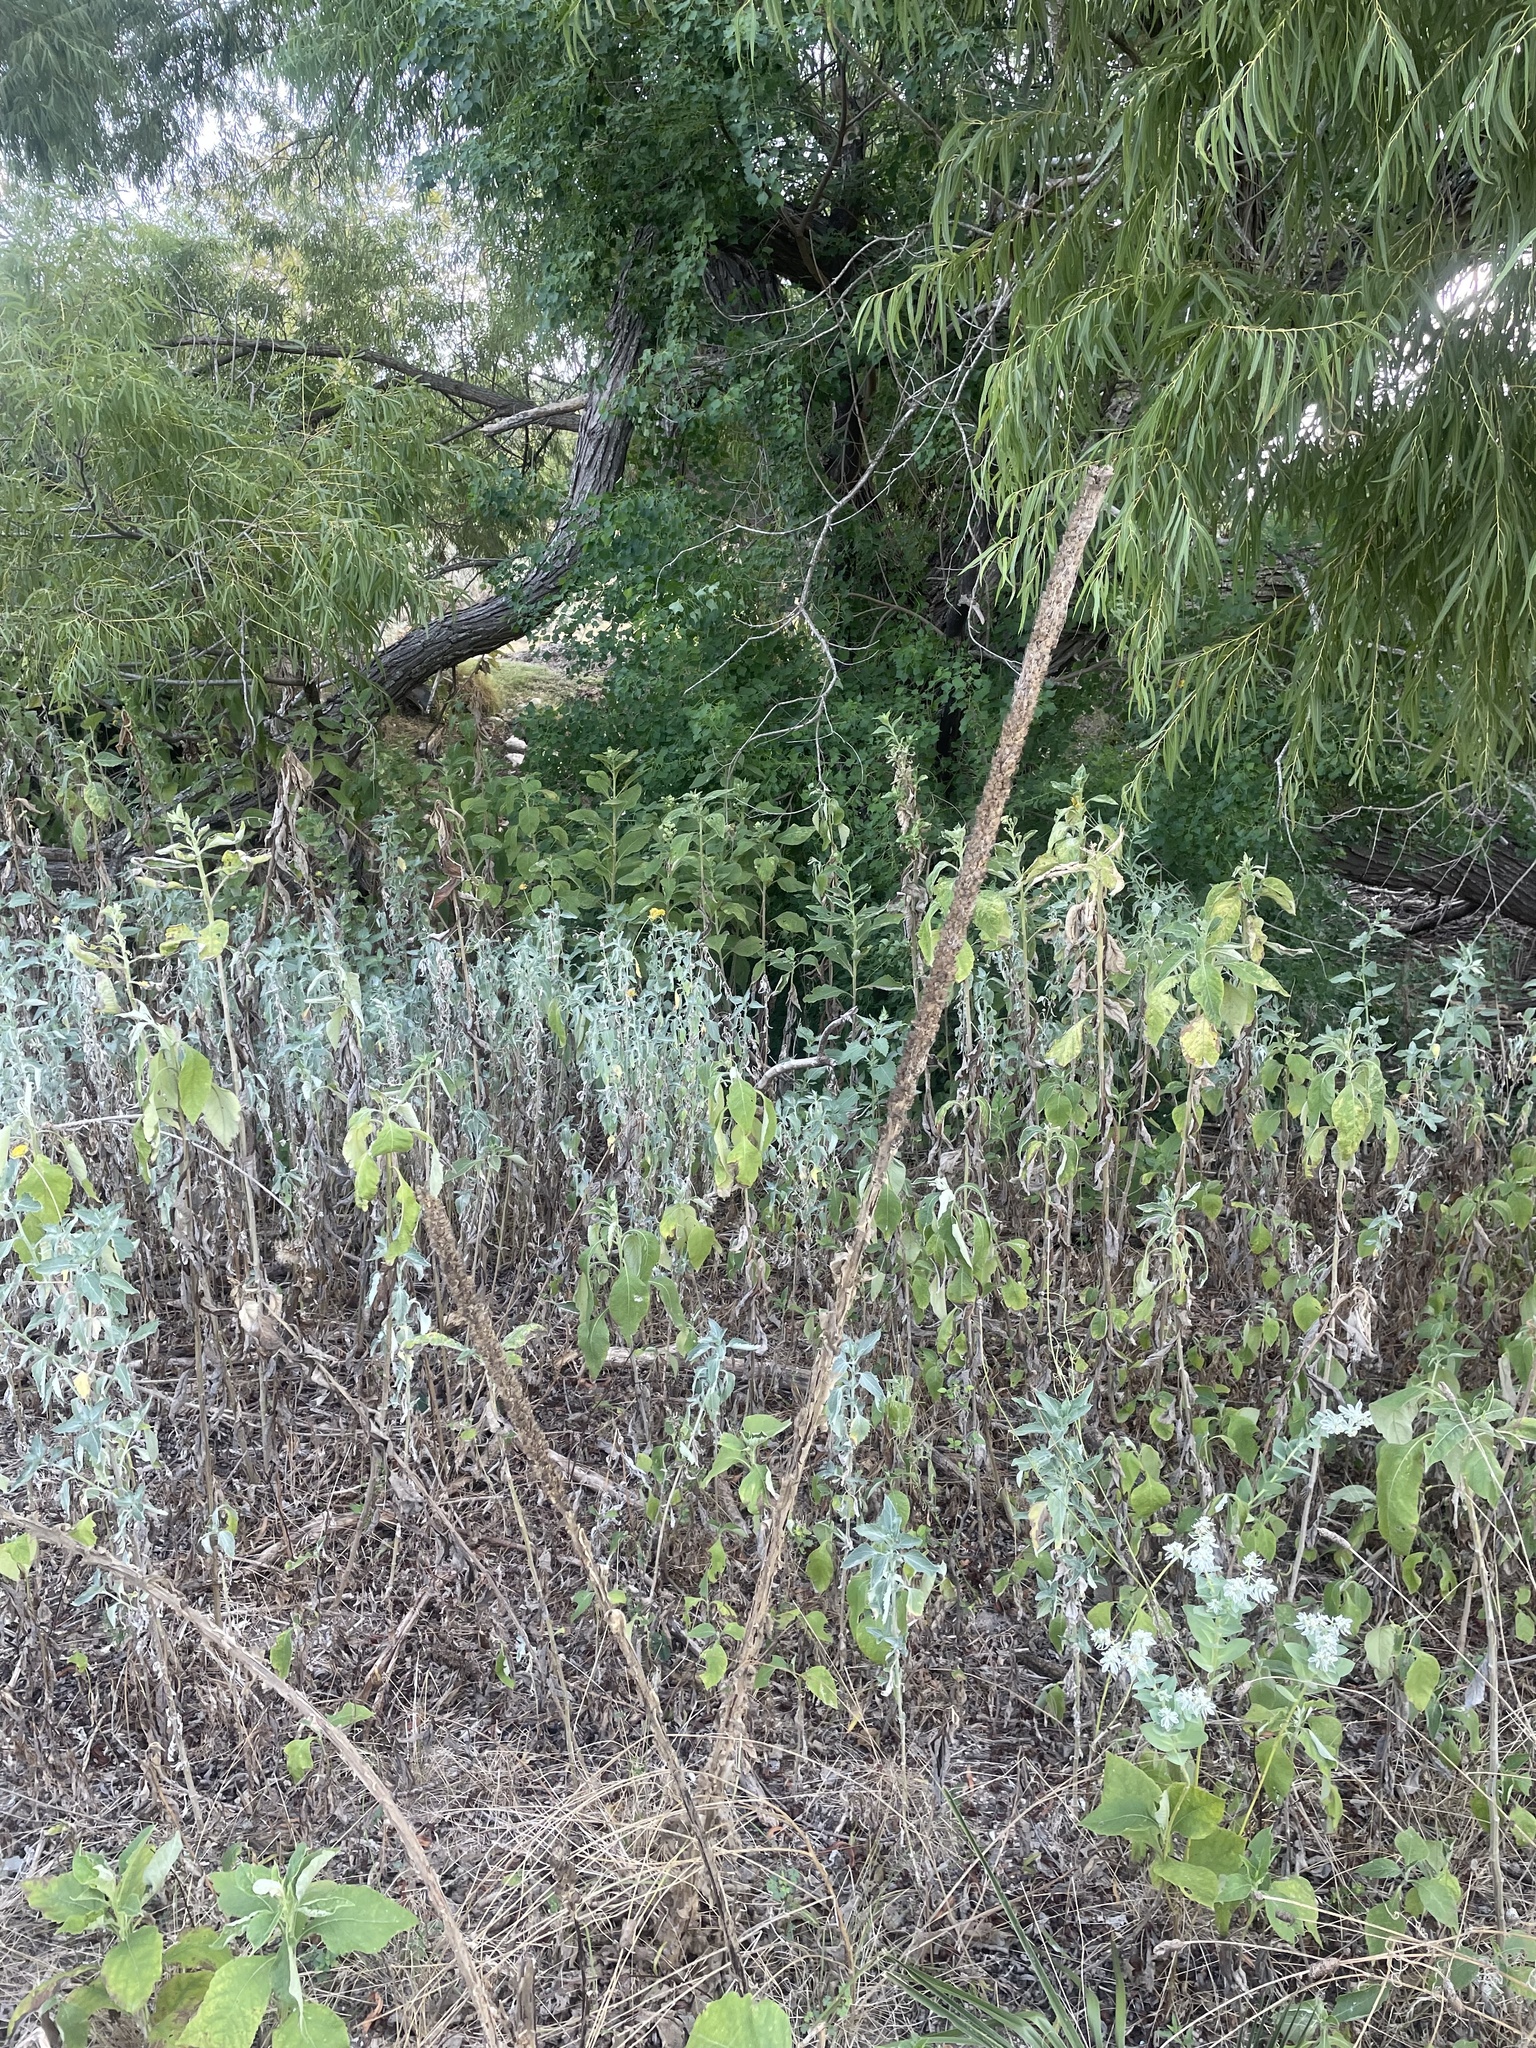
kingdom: Plantae
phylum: Tracheophyta
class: Magnoliopsida
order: Lamiales
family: Scrophulariaceae
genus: Verbascum
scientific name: Verbascum thapsus
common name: Common mullein
